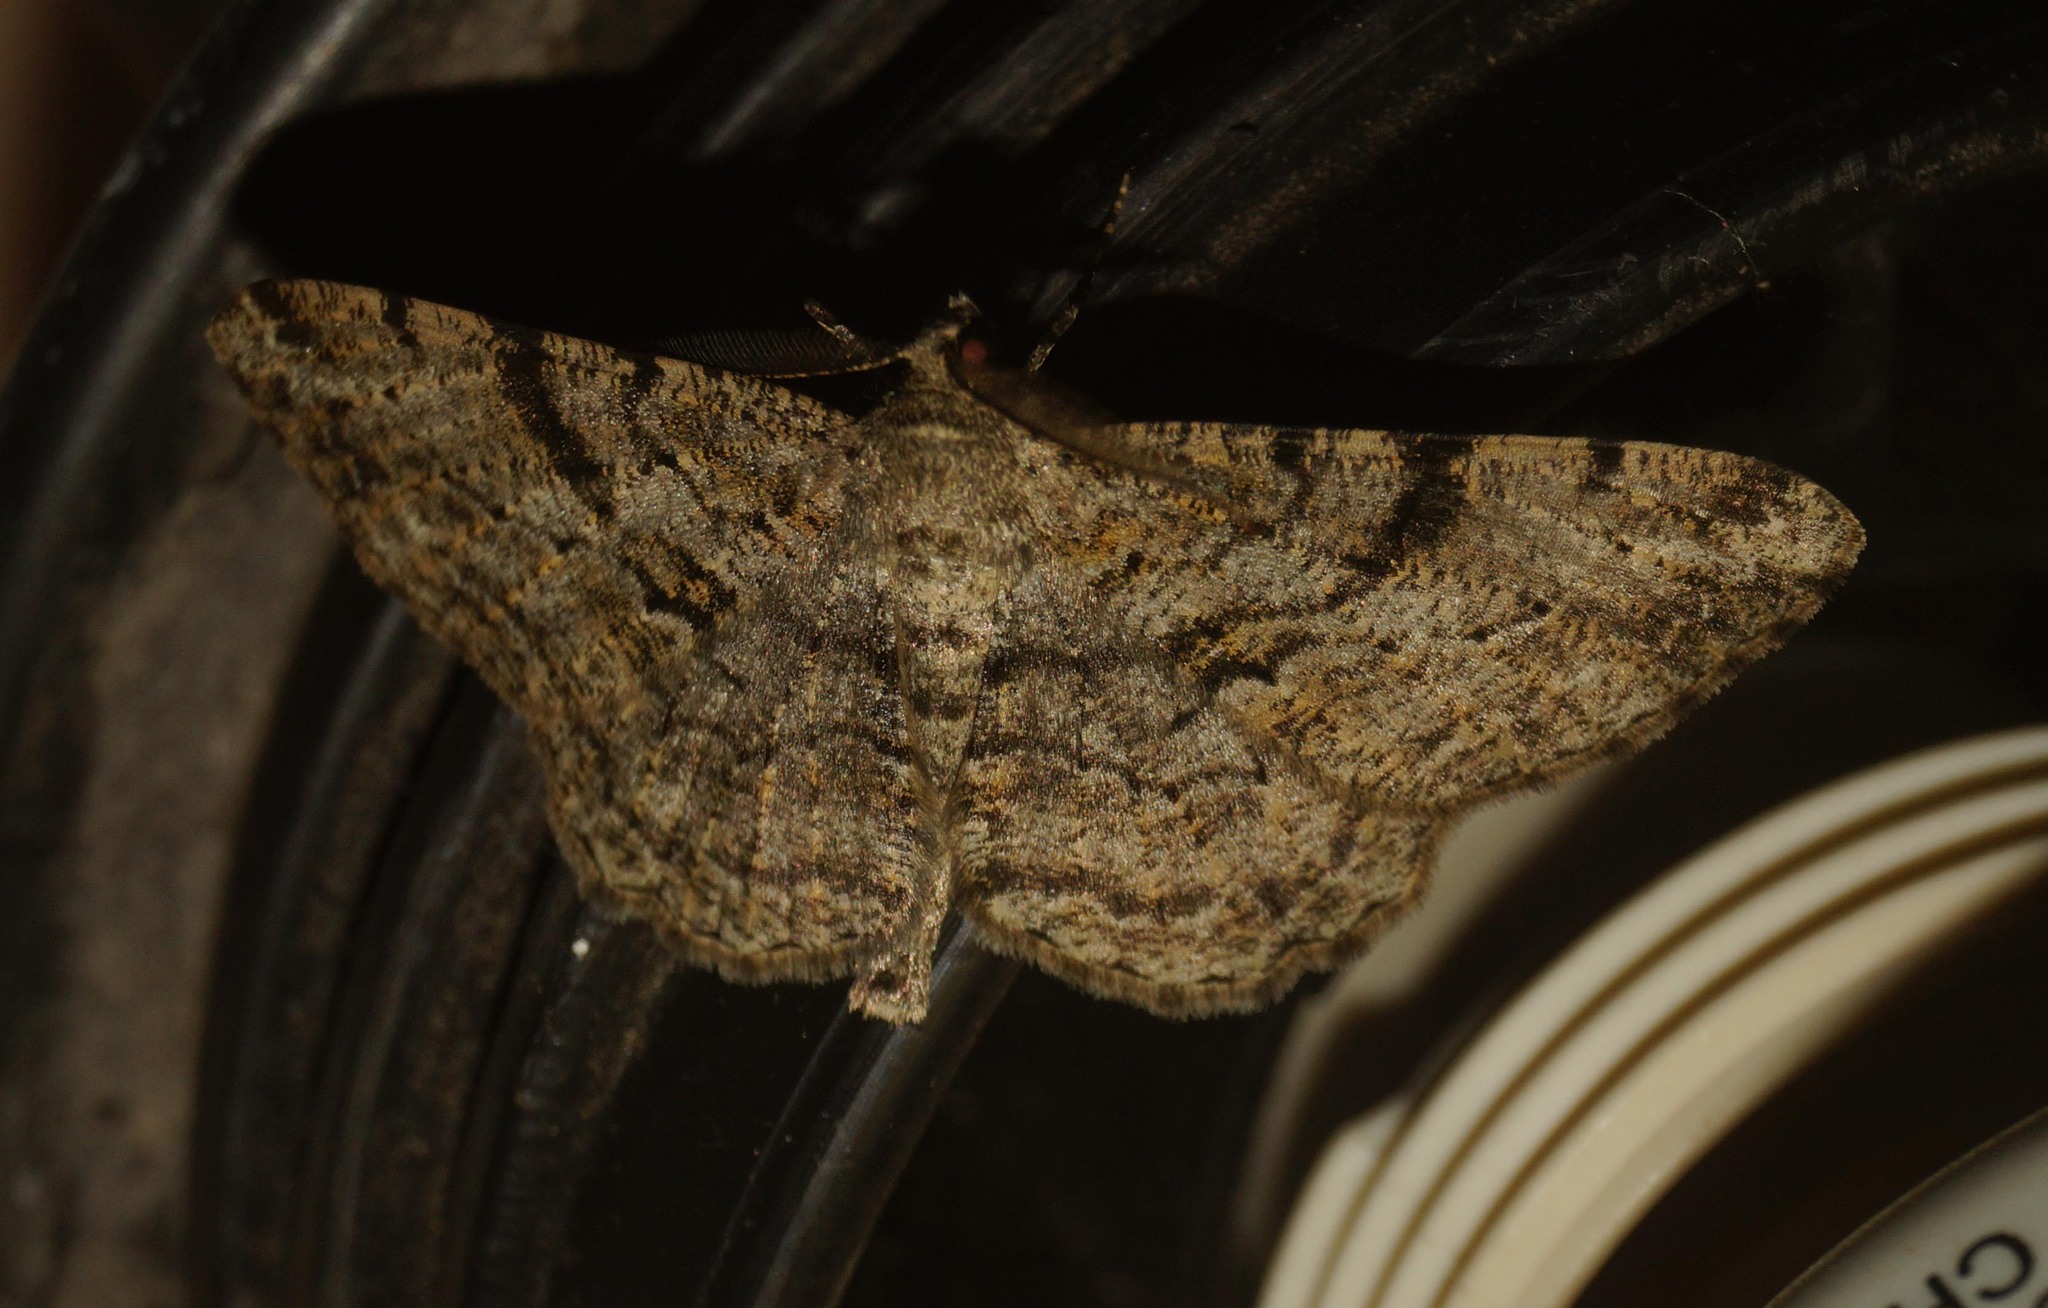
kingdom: Animalia
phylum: Arthropoda
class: Insecta
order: Lepidoptera
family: Geometridae
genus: Peribatodes
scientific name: Peribatodes rhomboidaria
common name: Willow beauty
